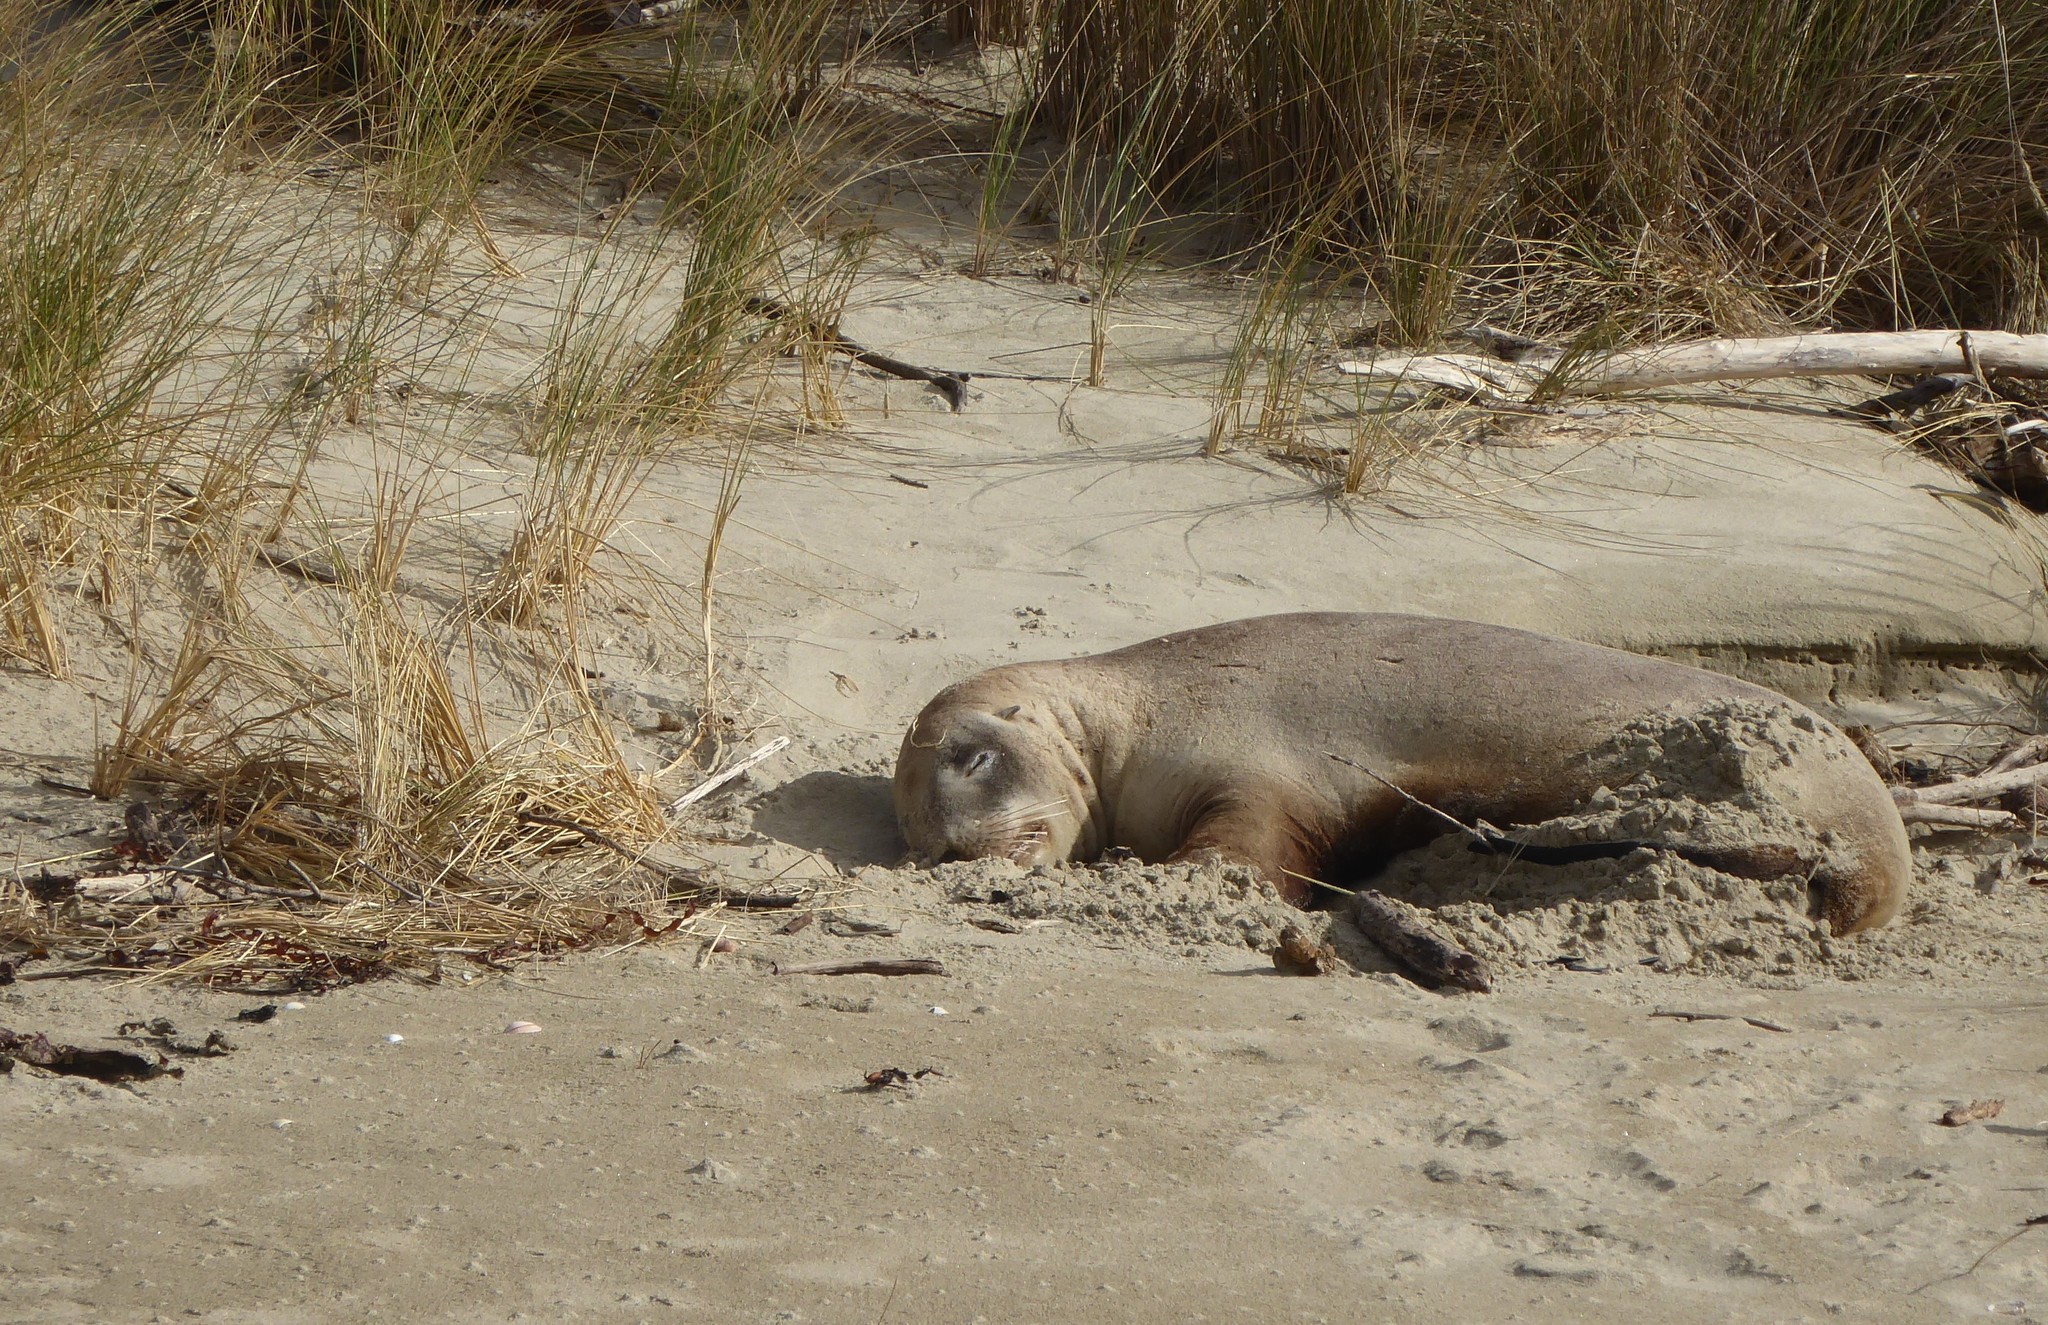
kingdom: Animalia
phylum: Chordata
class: Mammalia
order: Carnivora
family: Otariidae
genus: Phocarctos
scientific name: Phocarctos hookeri
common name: New zealand sea lion
